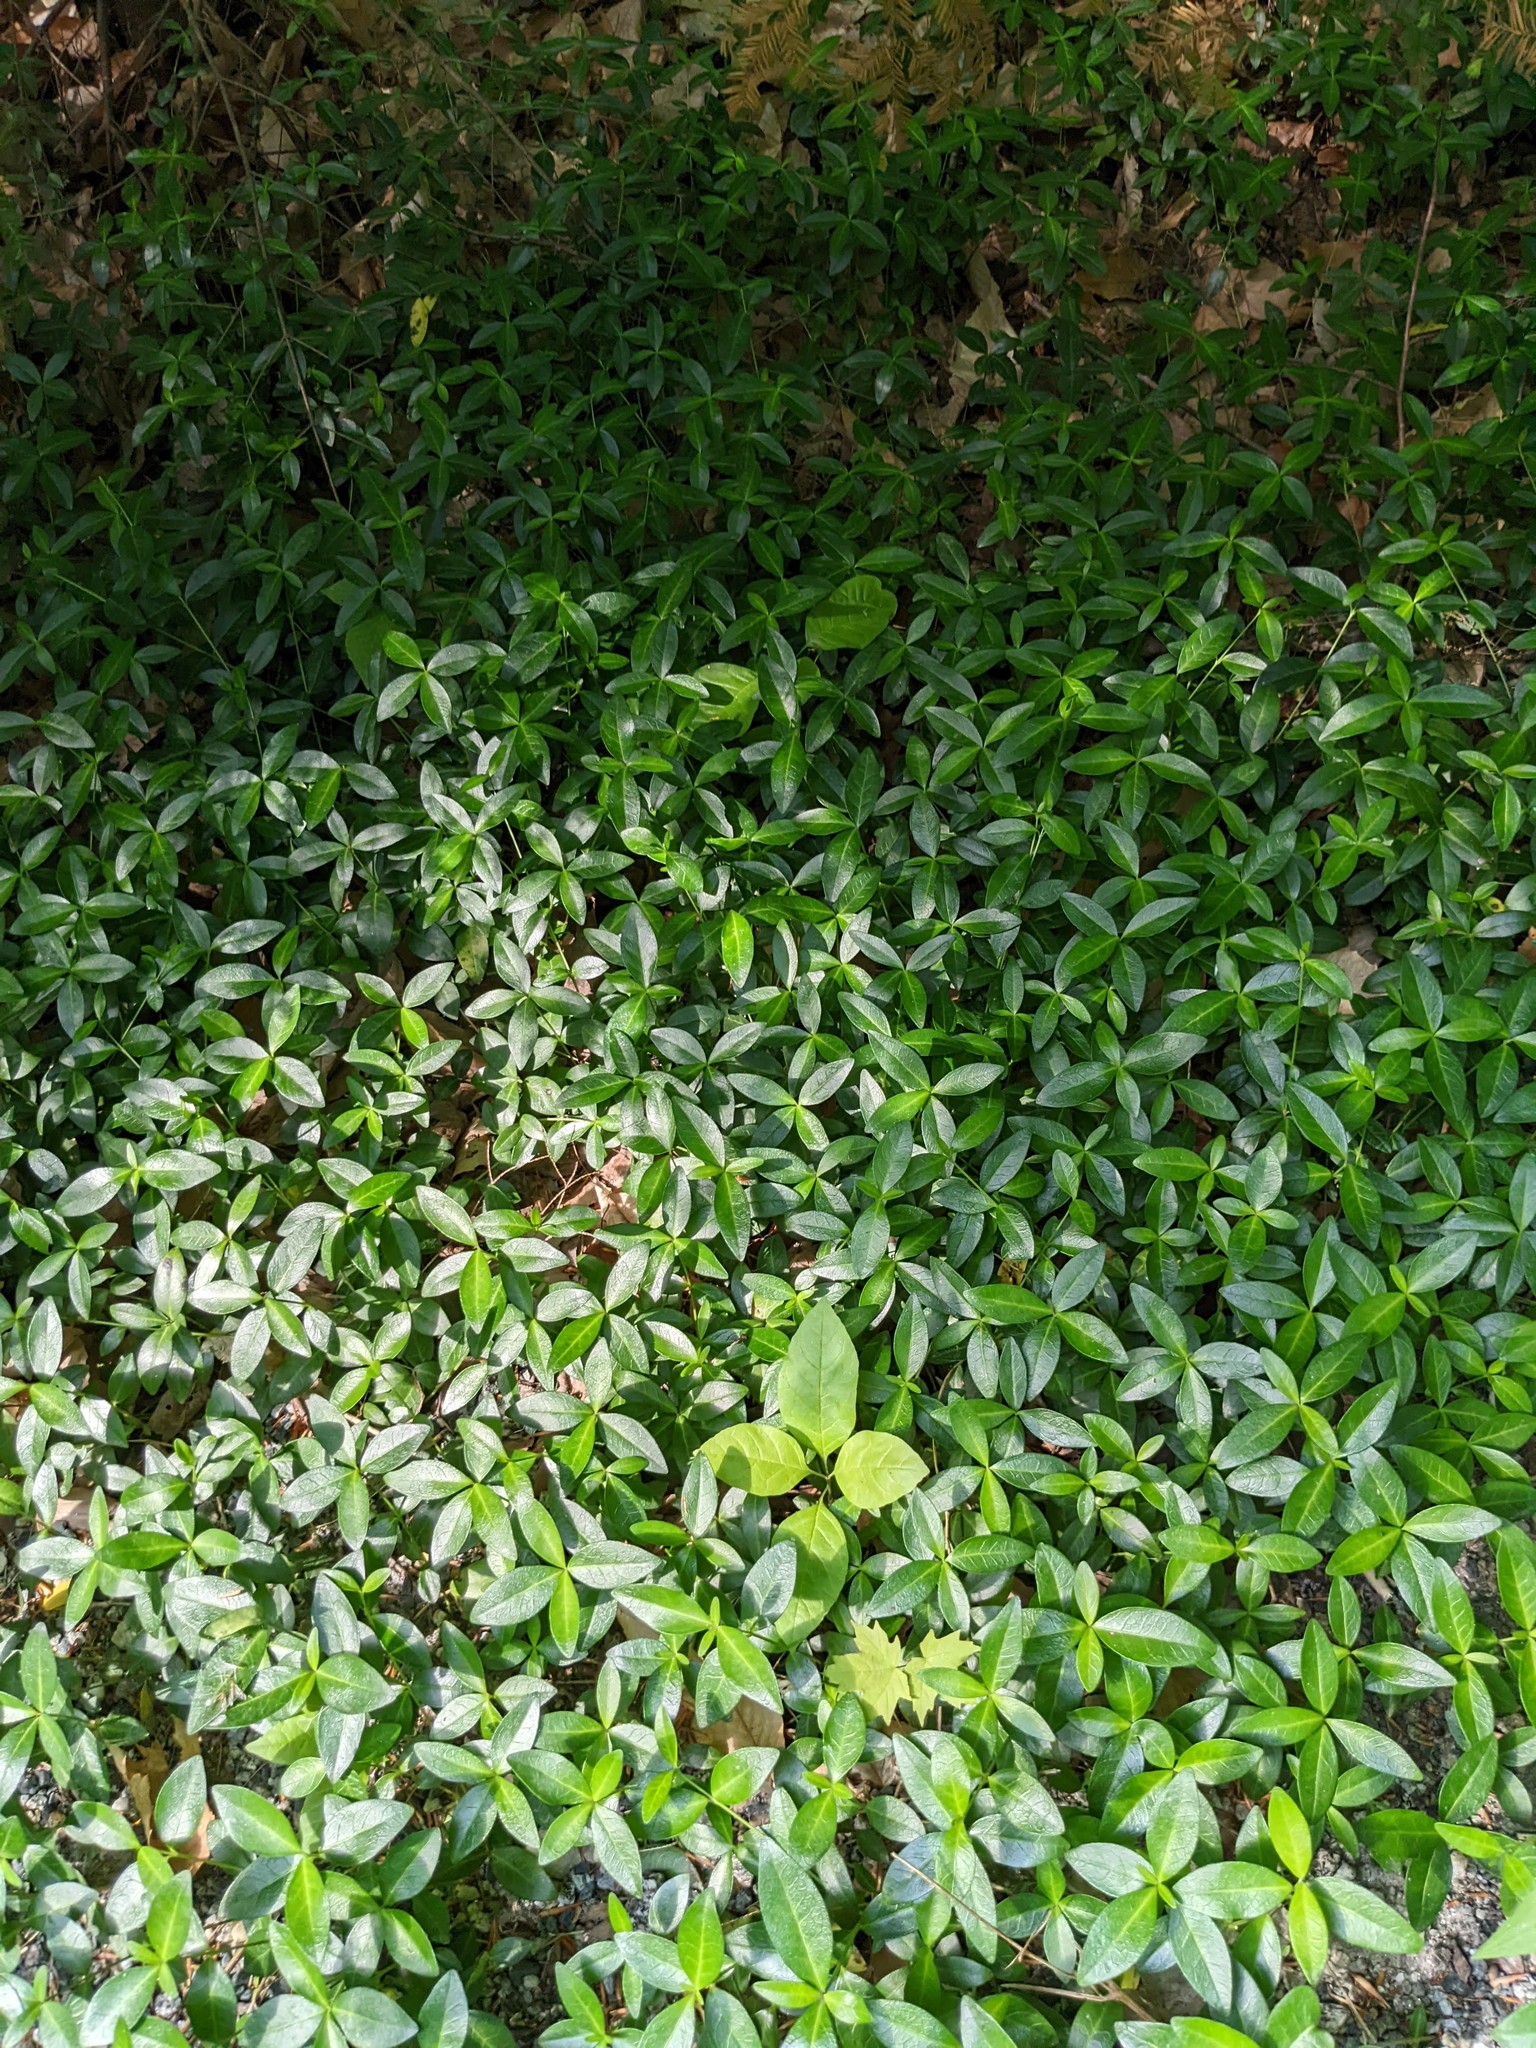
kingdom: Plantae
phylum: Tracheophyta
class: Magnoliopsida
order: Gentianales
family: Apocynaceae
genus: Vinca
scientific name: Vinca minor
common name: Lesser periwinkle
